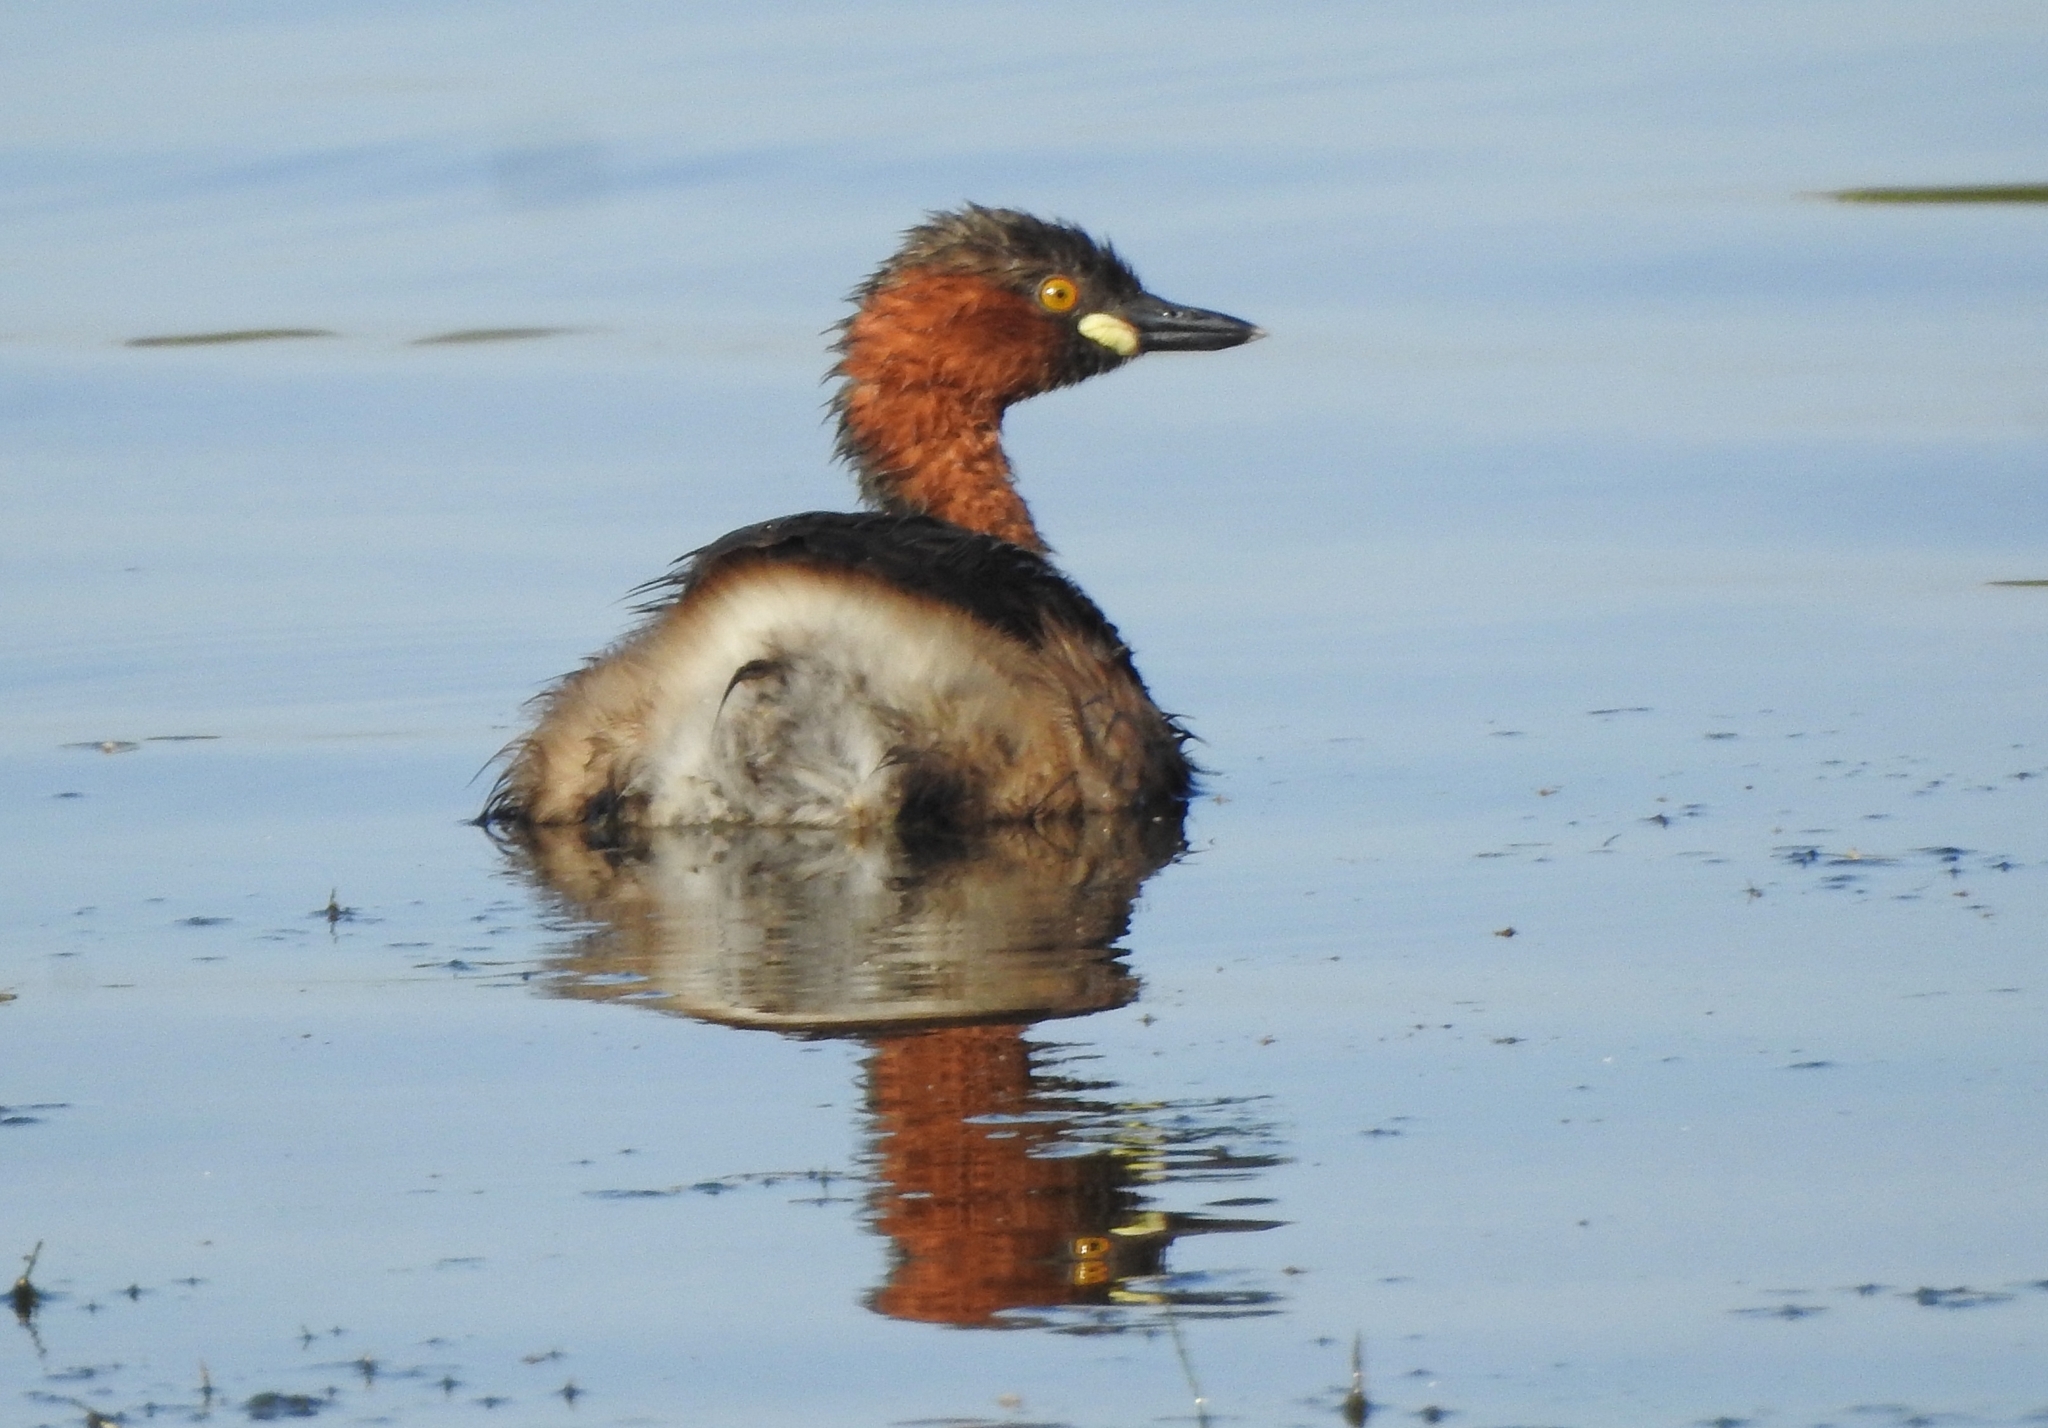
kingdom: Animalia
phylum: Chordata
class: Aves
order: Podicipediformes
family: Podicipedidae
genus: Tachybaptus
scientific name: Tachybaptus ruficollis
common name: Little grebe
